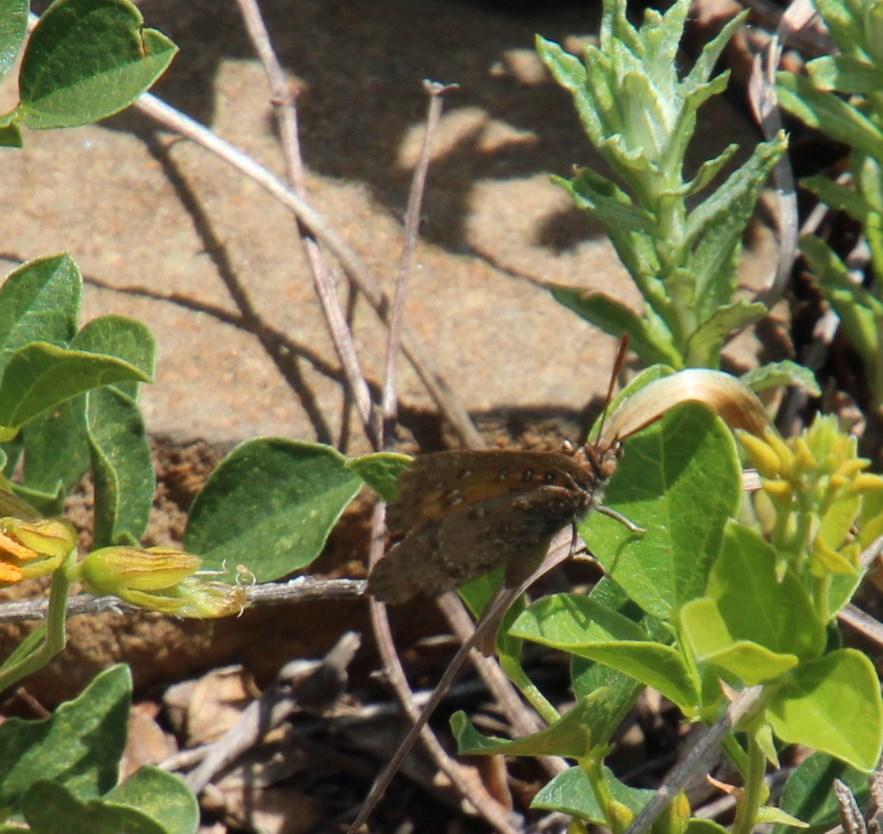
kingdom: Animalia
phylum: Arthropoda
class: Insecta
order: Lepidoptera
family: Lycaenidae
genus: Aloeides
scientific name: Aloeides swanepoeli
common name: Swanepoel's copper
